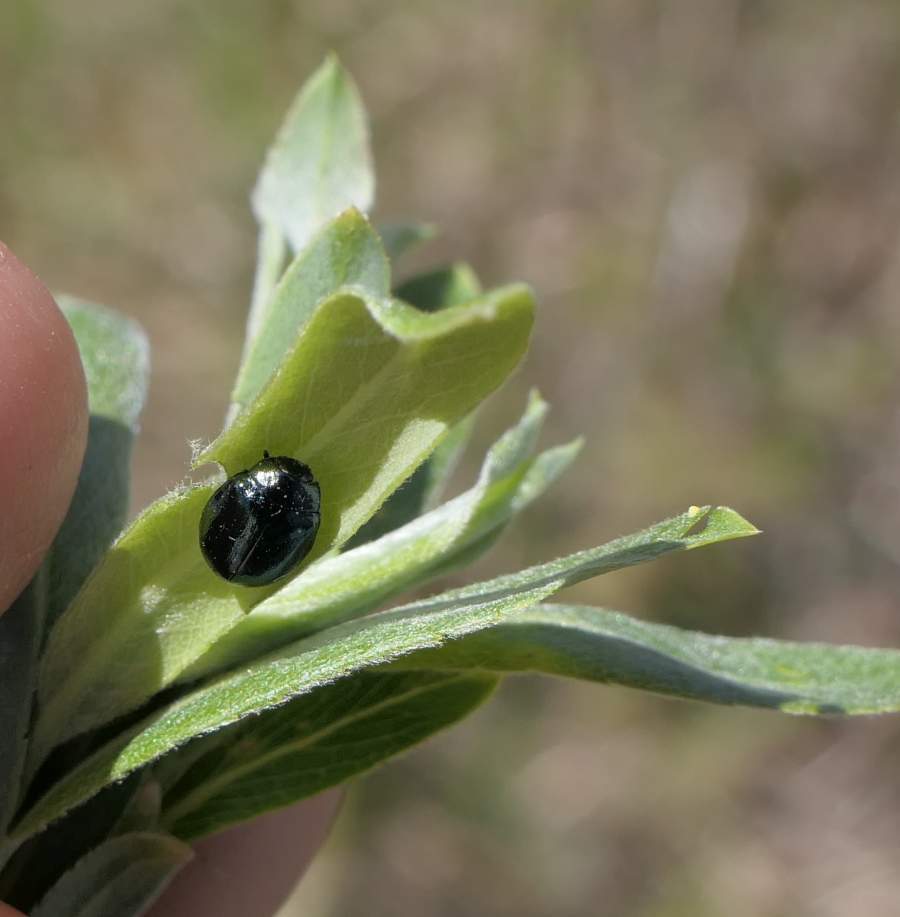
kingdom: Animalia
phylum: Arthropoda
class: Insecta
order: Coleoptera
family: Chrysomelidae
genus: Plagiodera
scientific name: Plagiodera versicolora
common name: Imported willow leaf beetle
